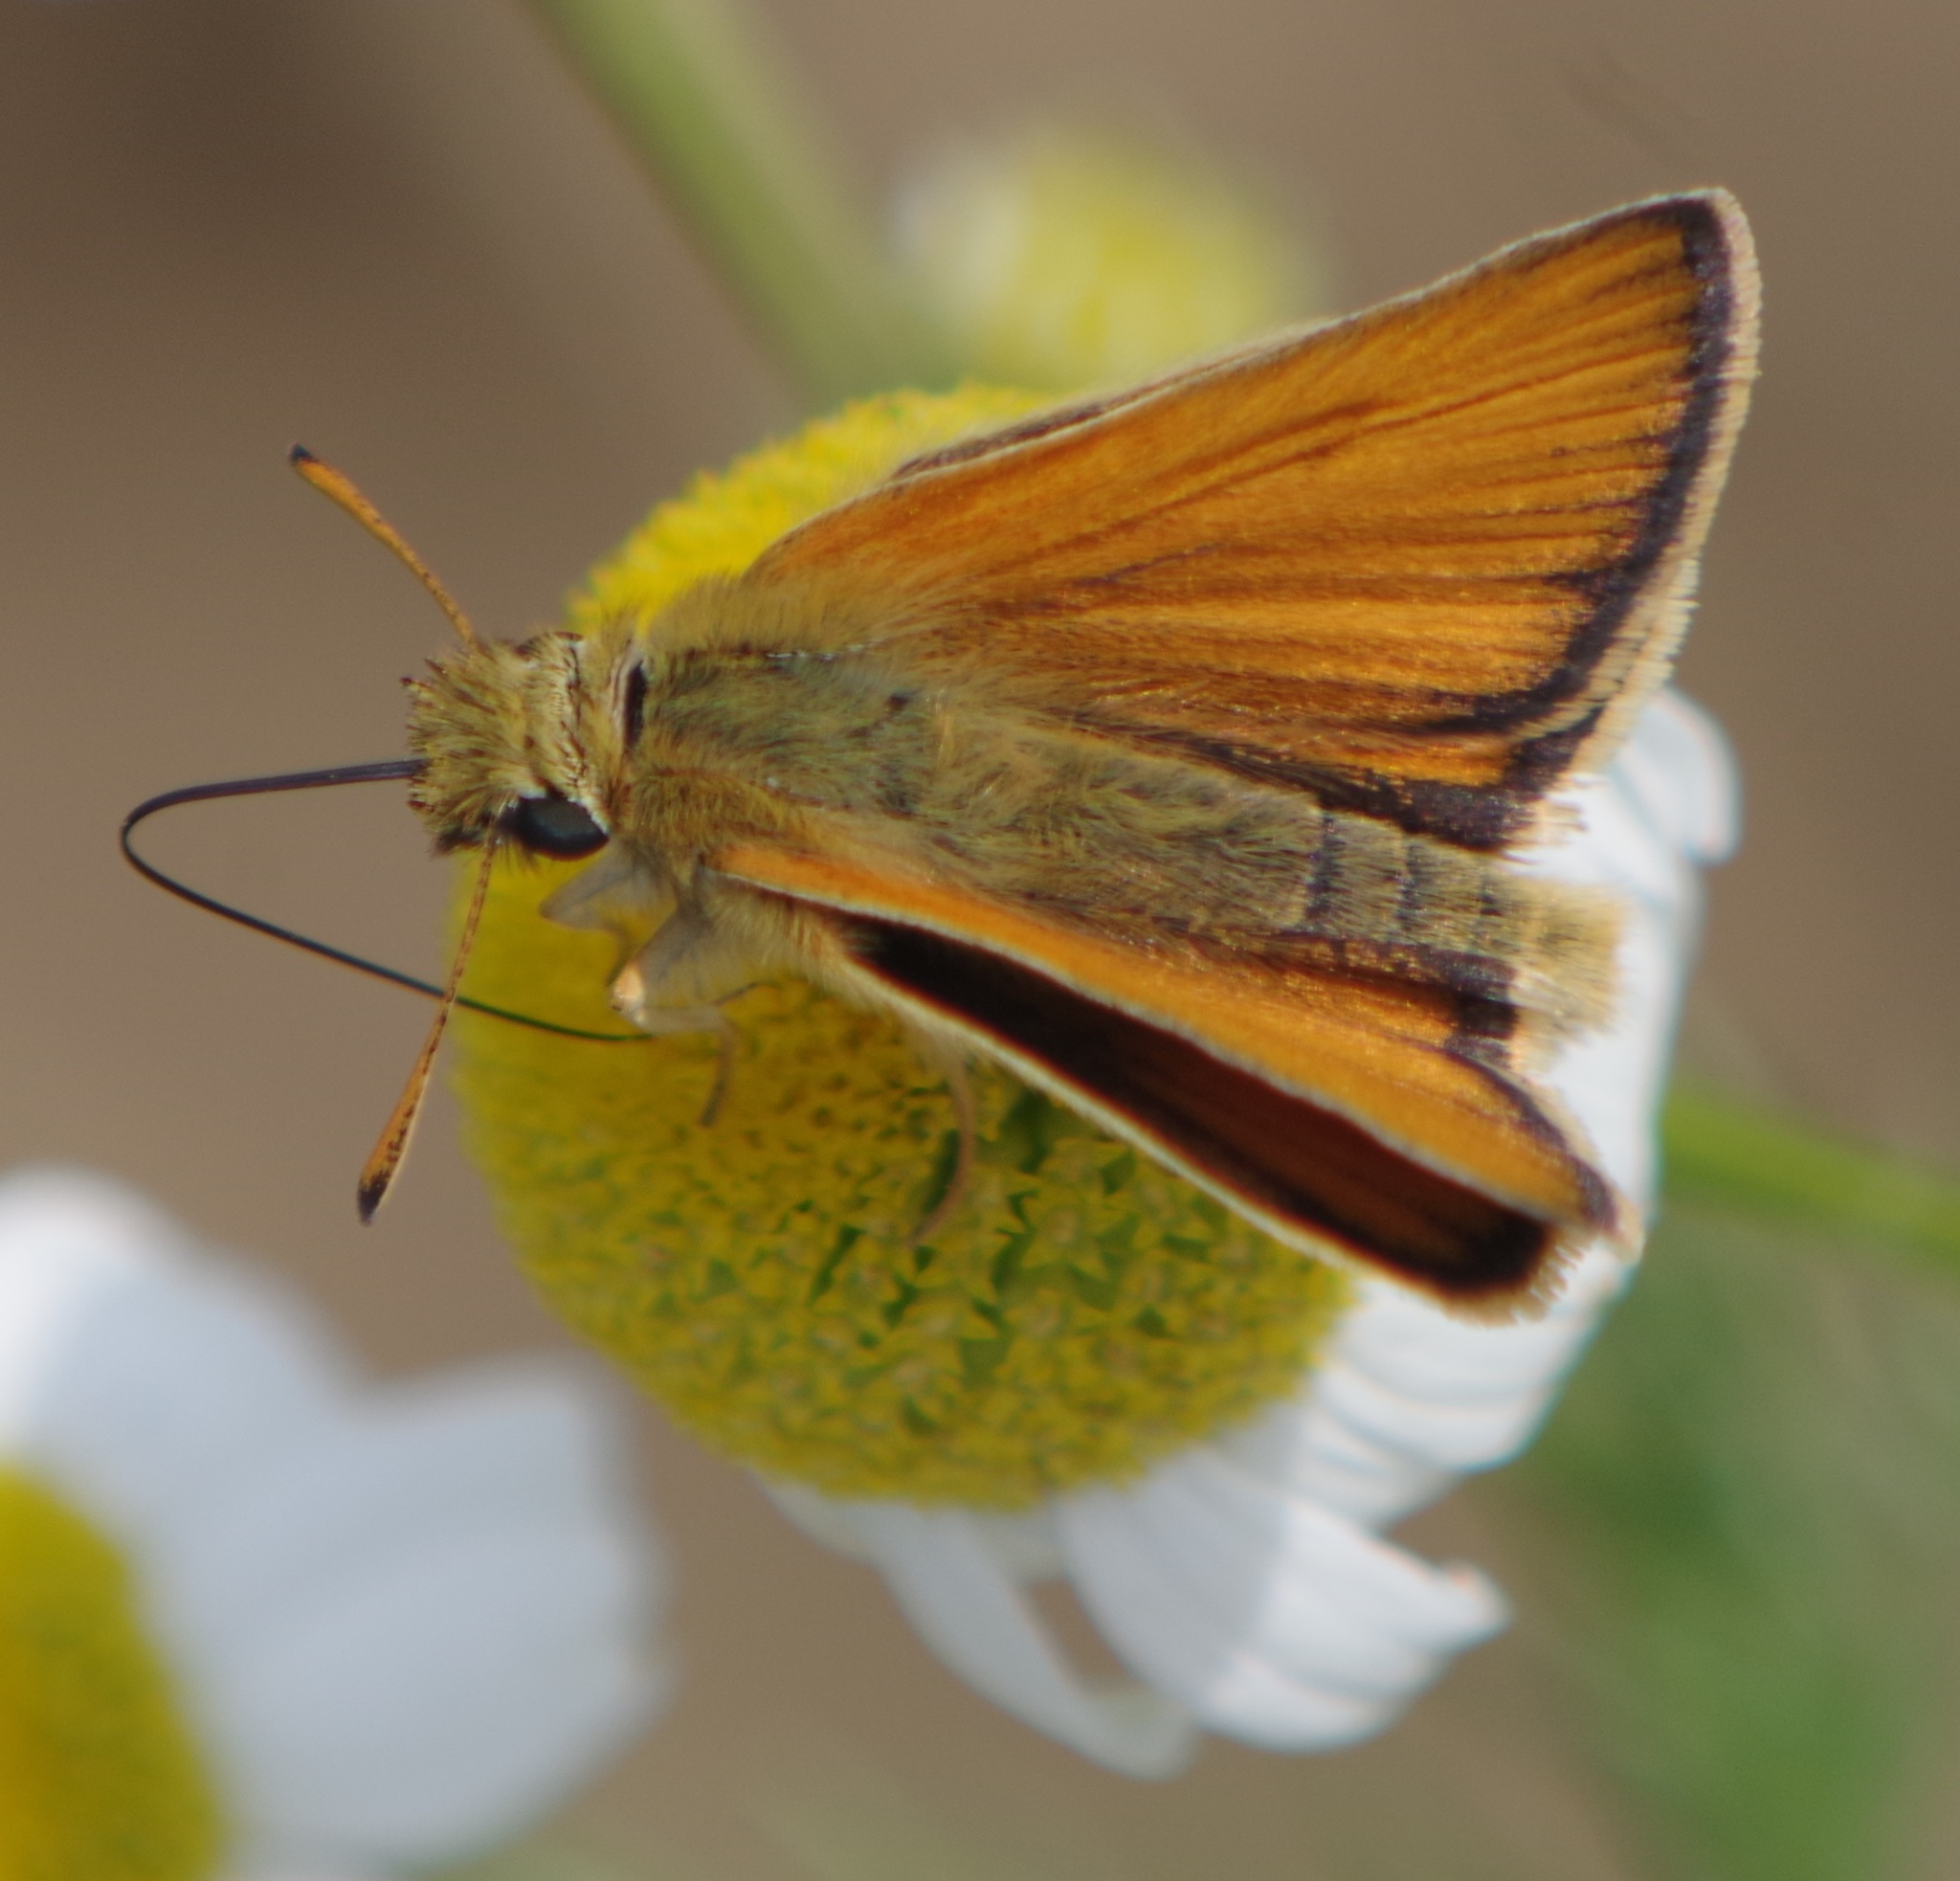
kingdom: Animalia
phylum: Arthropoda
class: Insecta
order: Lepidoptera
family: Hesperiidae
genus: Thymelicus
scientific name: Thymelicus lineola
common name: Essex skipper
